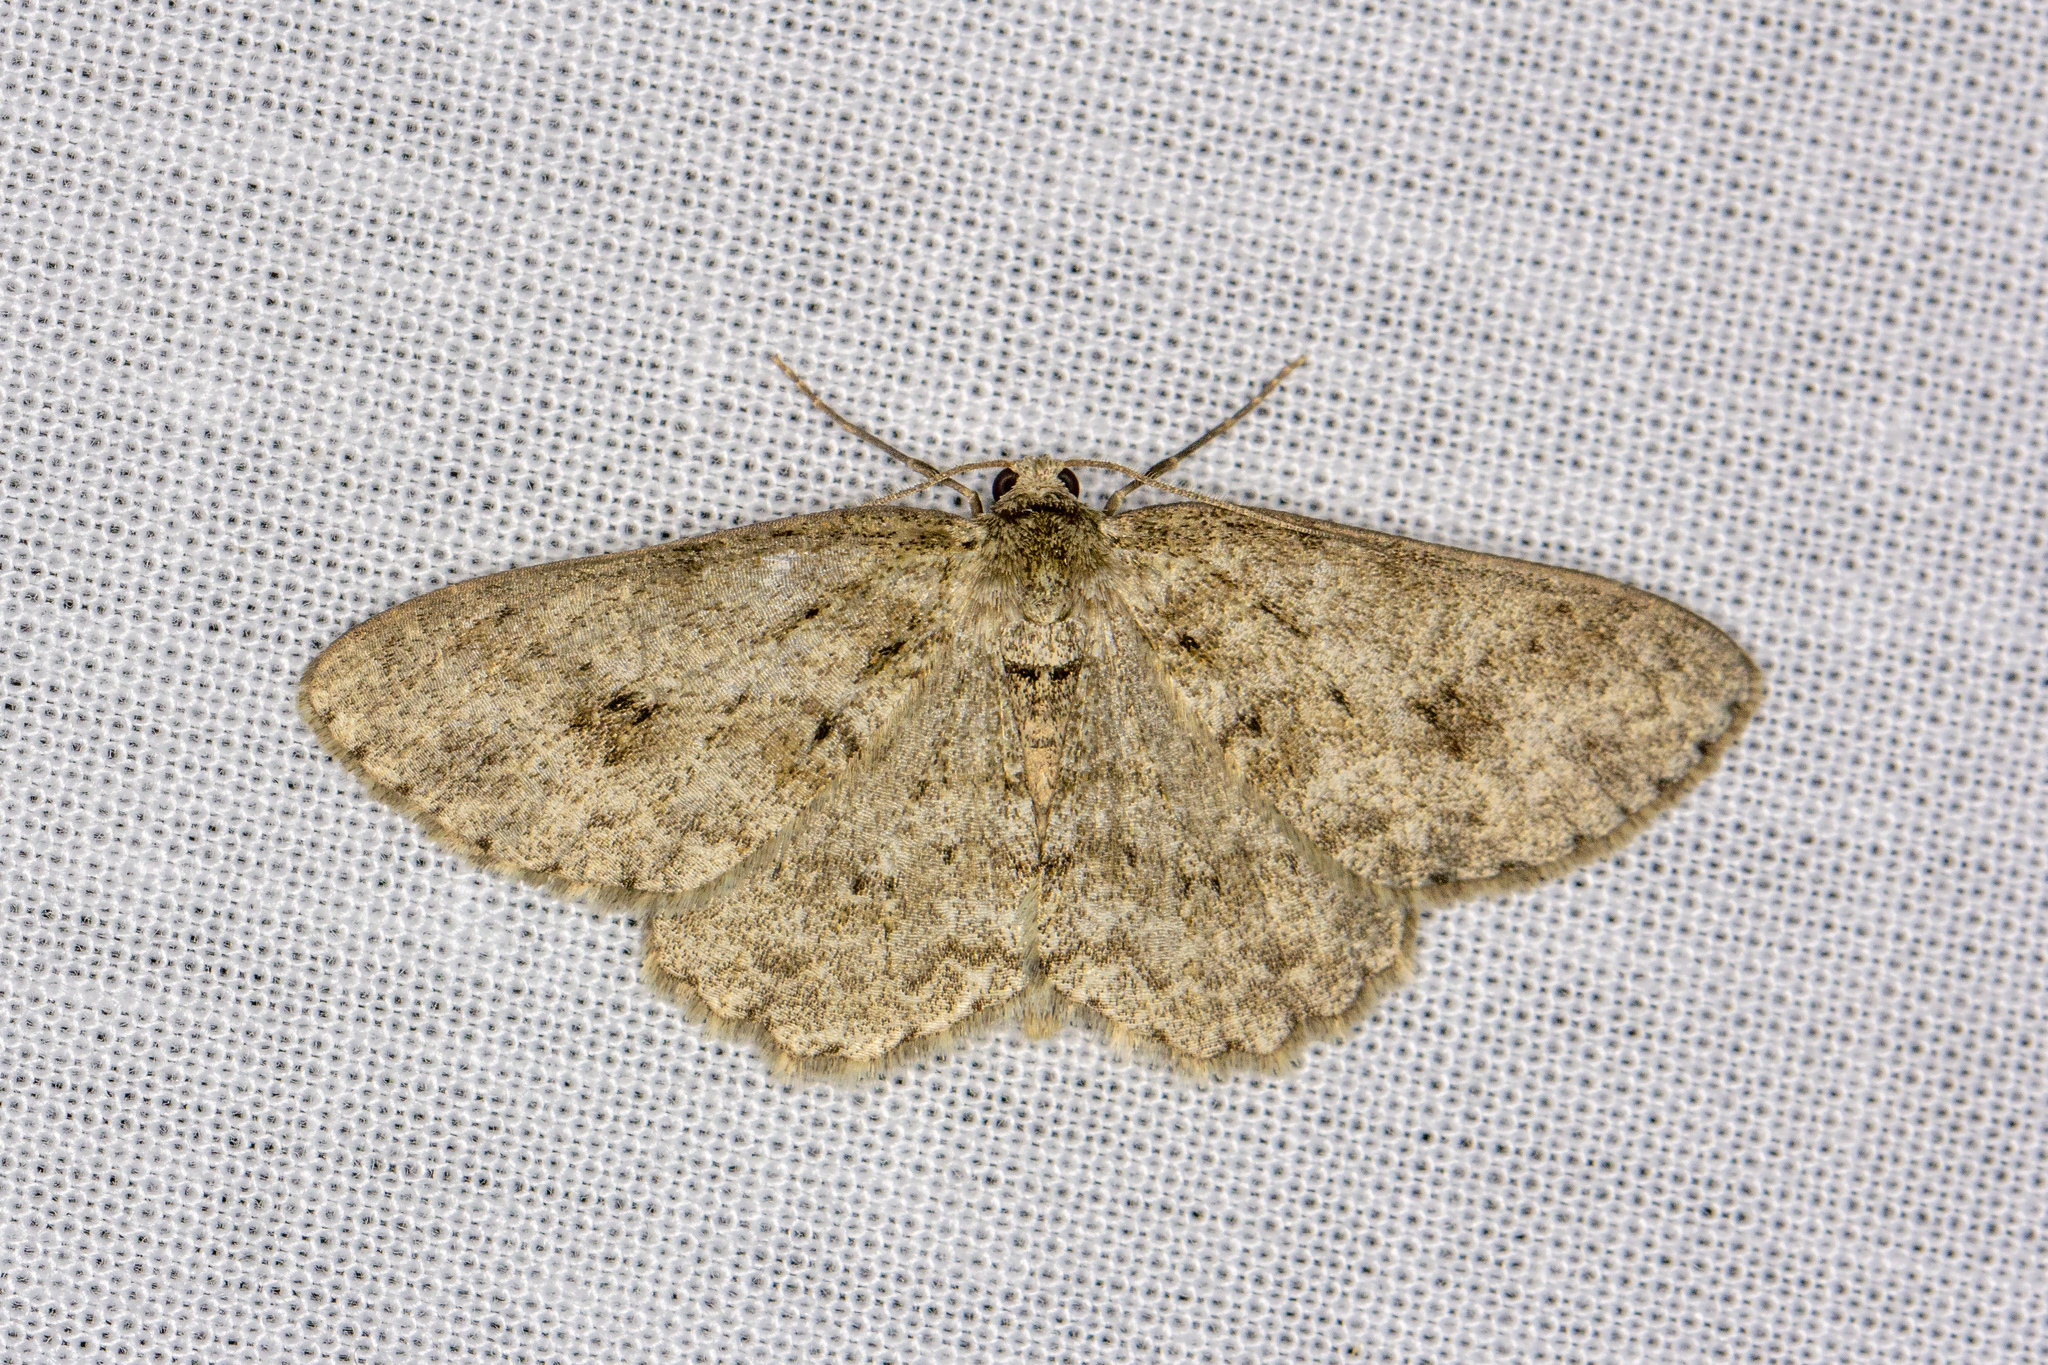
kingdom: Animalia
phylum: Arthropoda
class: Insecta
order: Lepidoptera
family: Geometridae
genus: Ectropis
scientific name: Ectropis crepuscularia
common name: Engrailed
